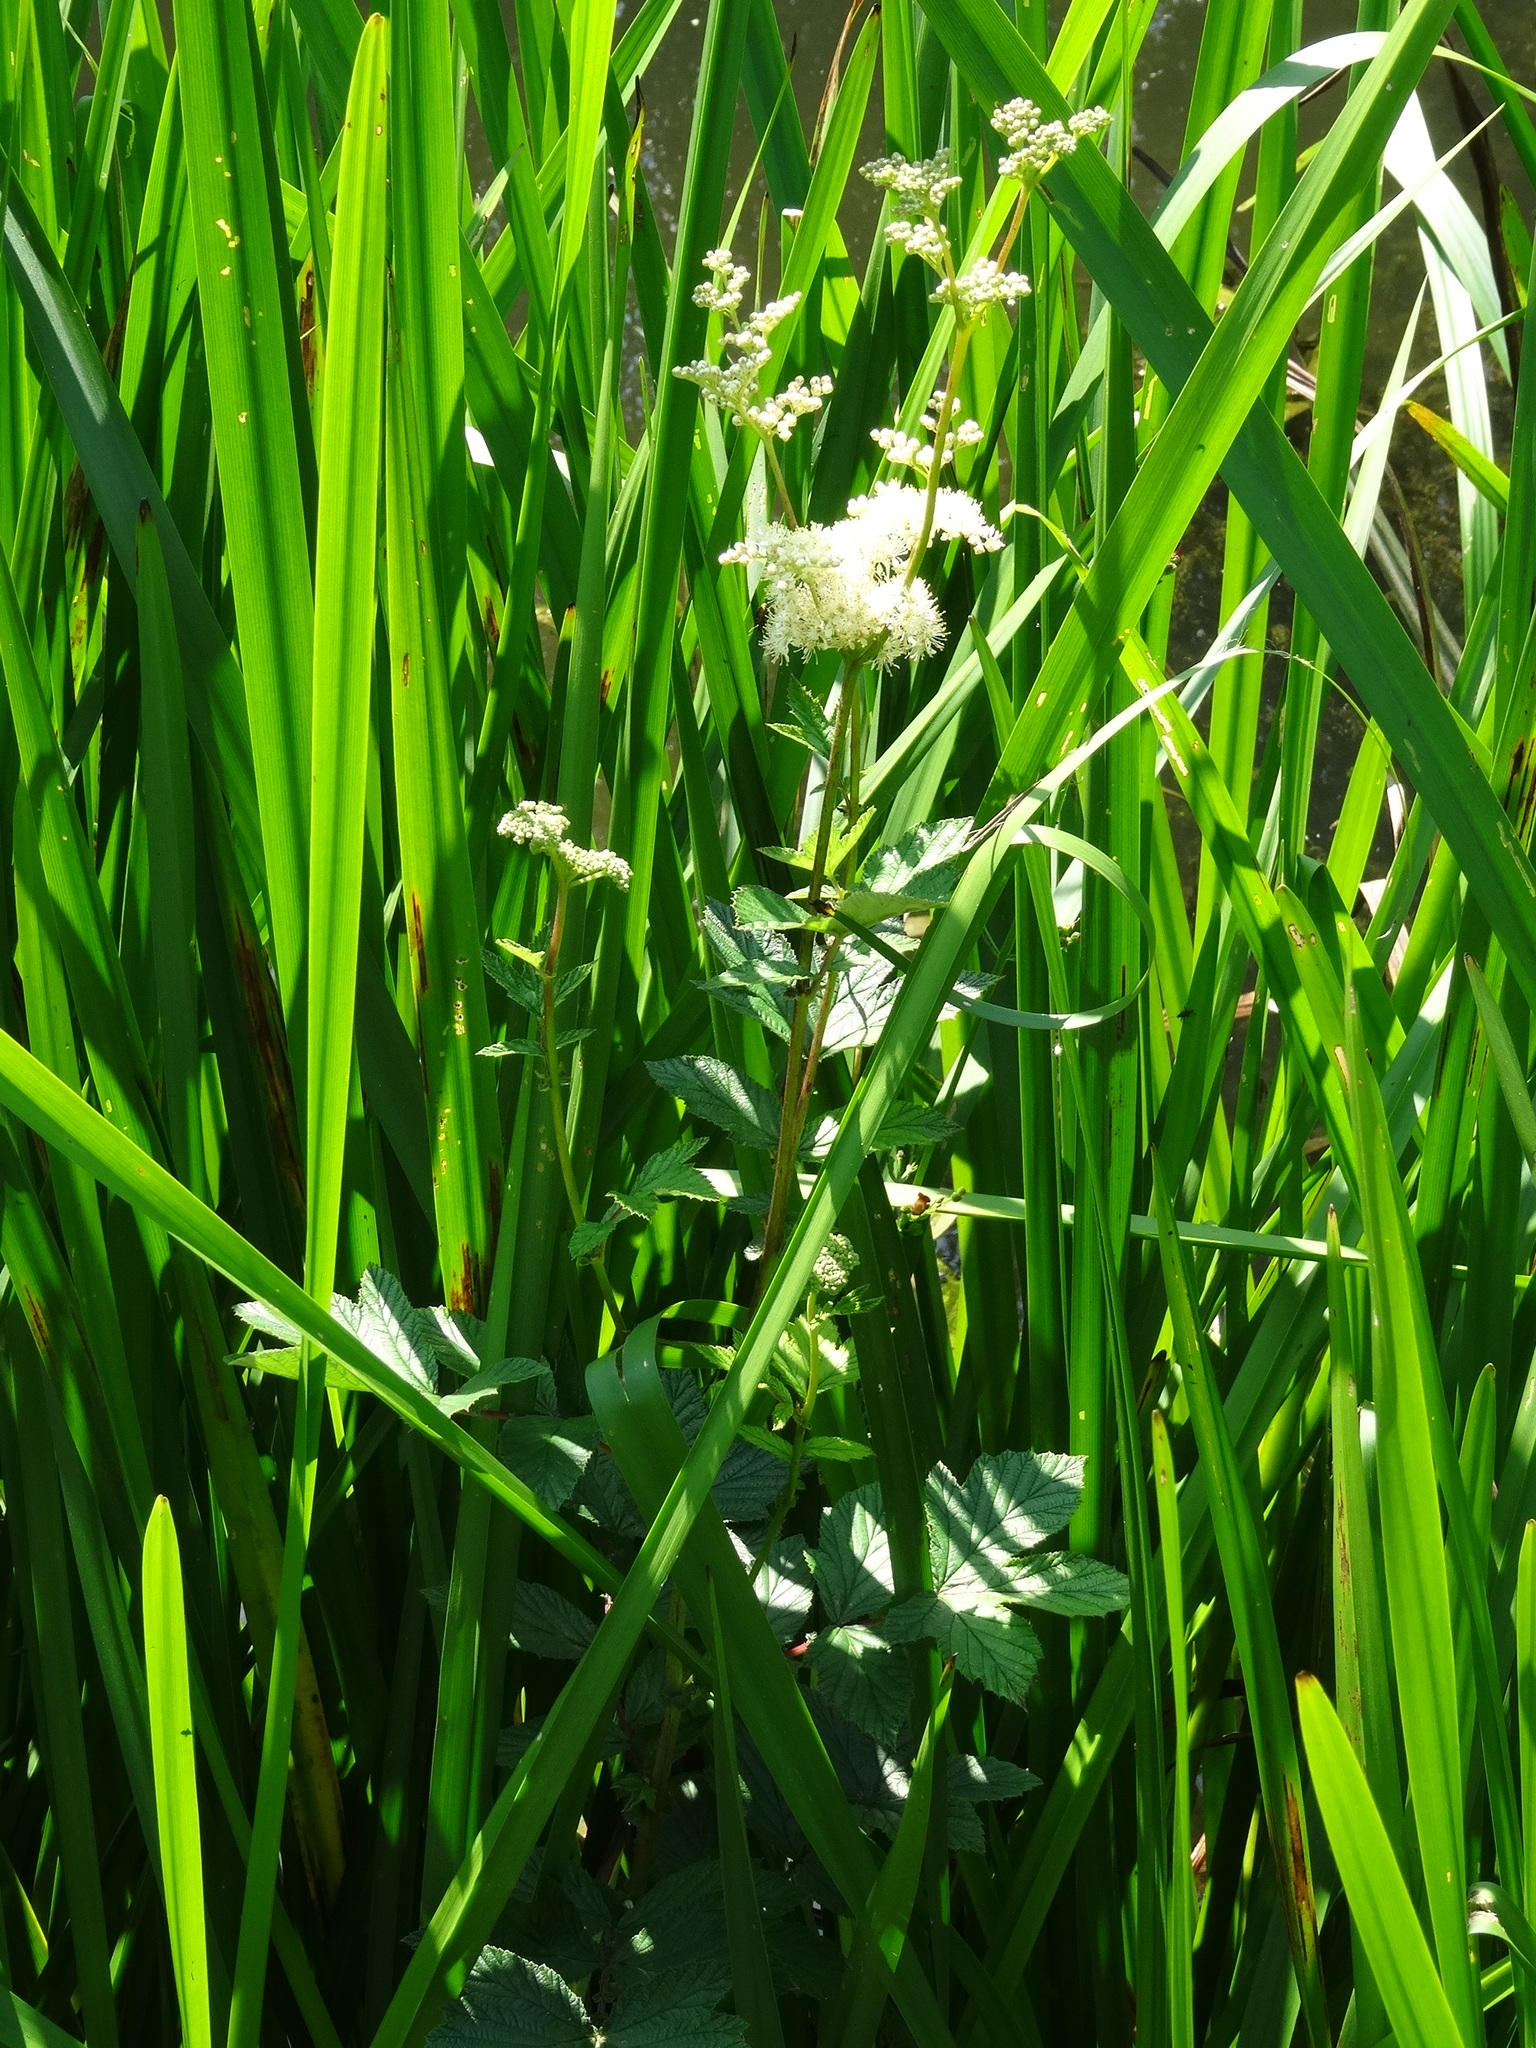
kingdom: Plantae
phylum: Tracheophyta
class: Magnoliopsida
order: Rosales
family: Rosaceae
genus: Filipendula
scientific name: Filipendula ulmaria
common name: Meadowsweet
